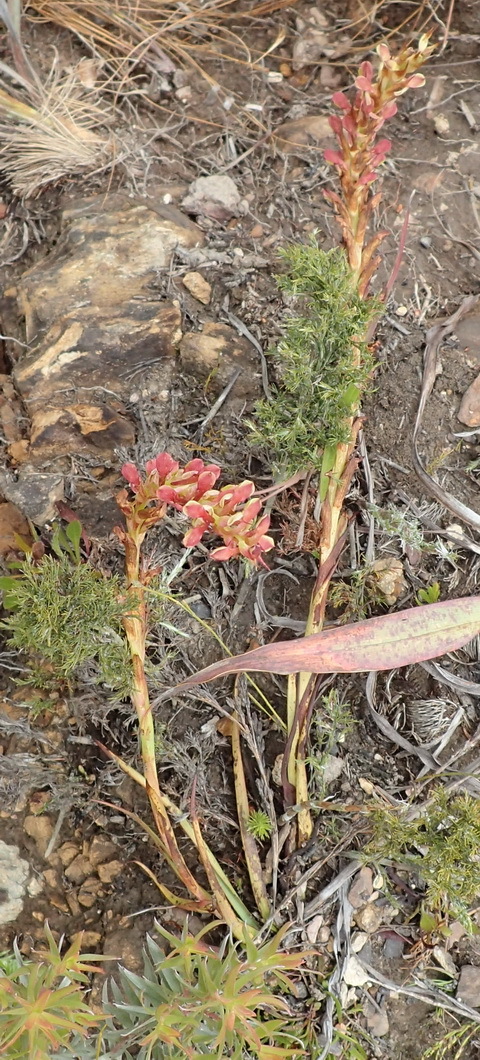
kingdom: Plantae
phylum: Tracheophyta
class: Liliopsida
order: Asparagales
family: Orchidaceae
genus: Disa
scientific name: Disa reticulata
